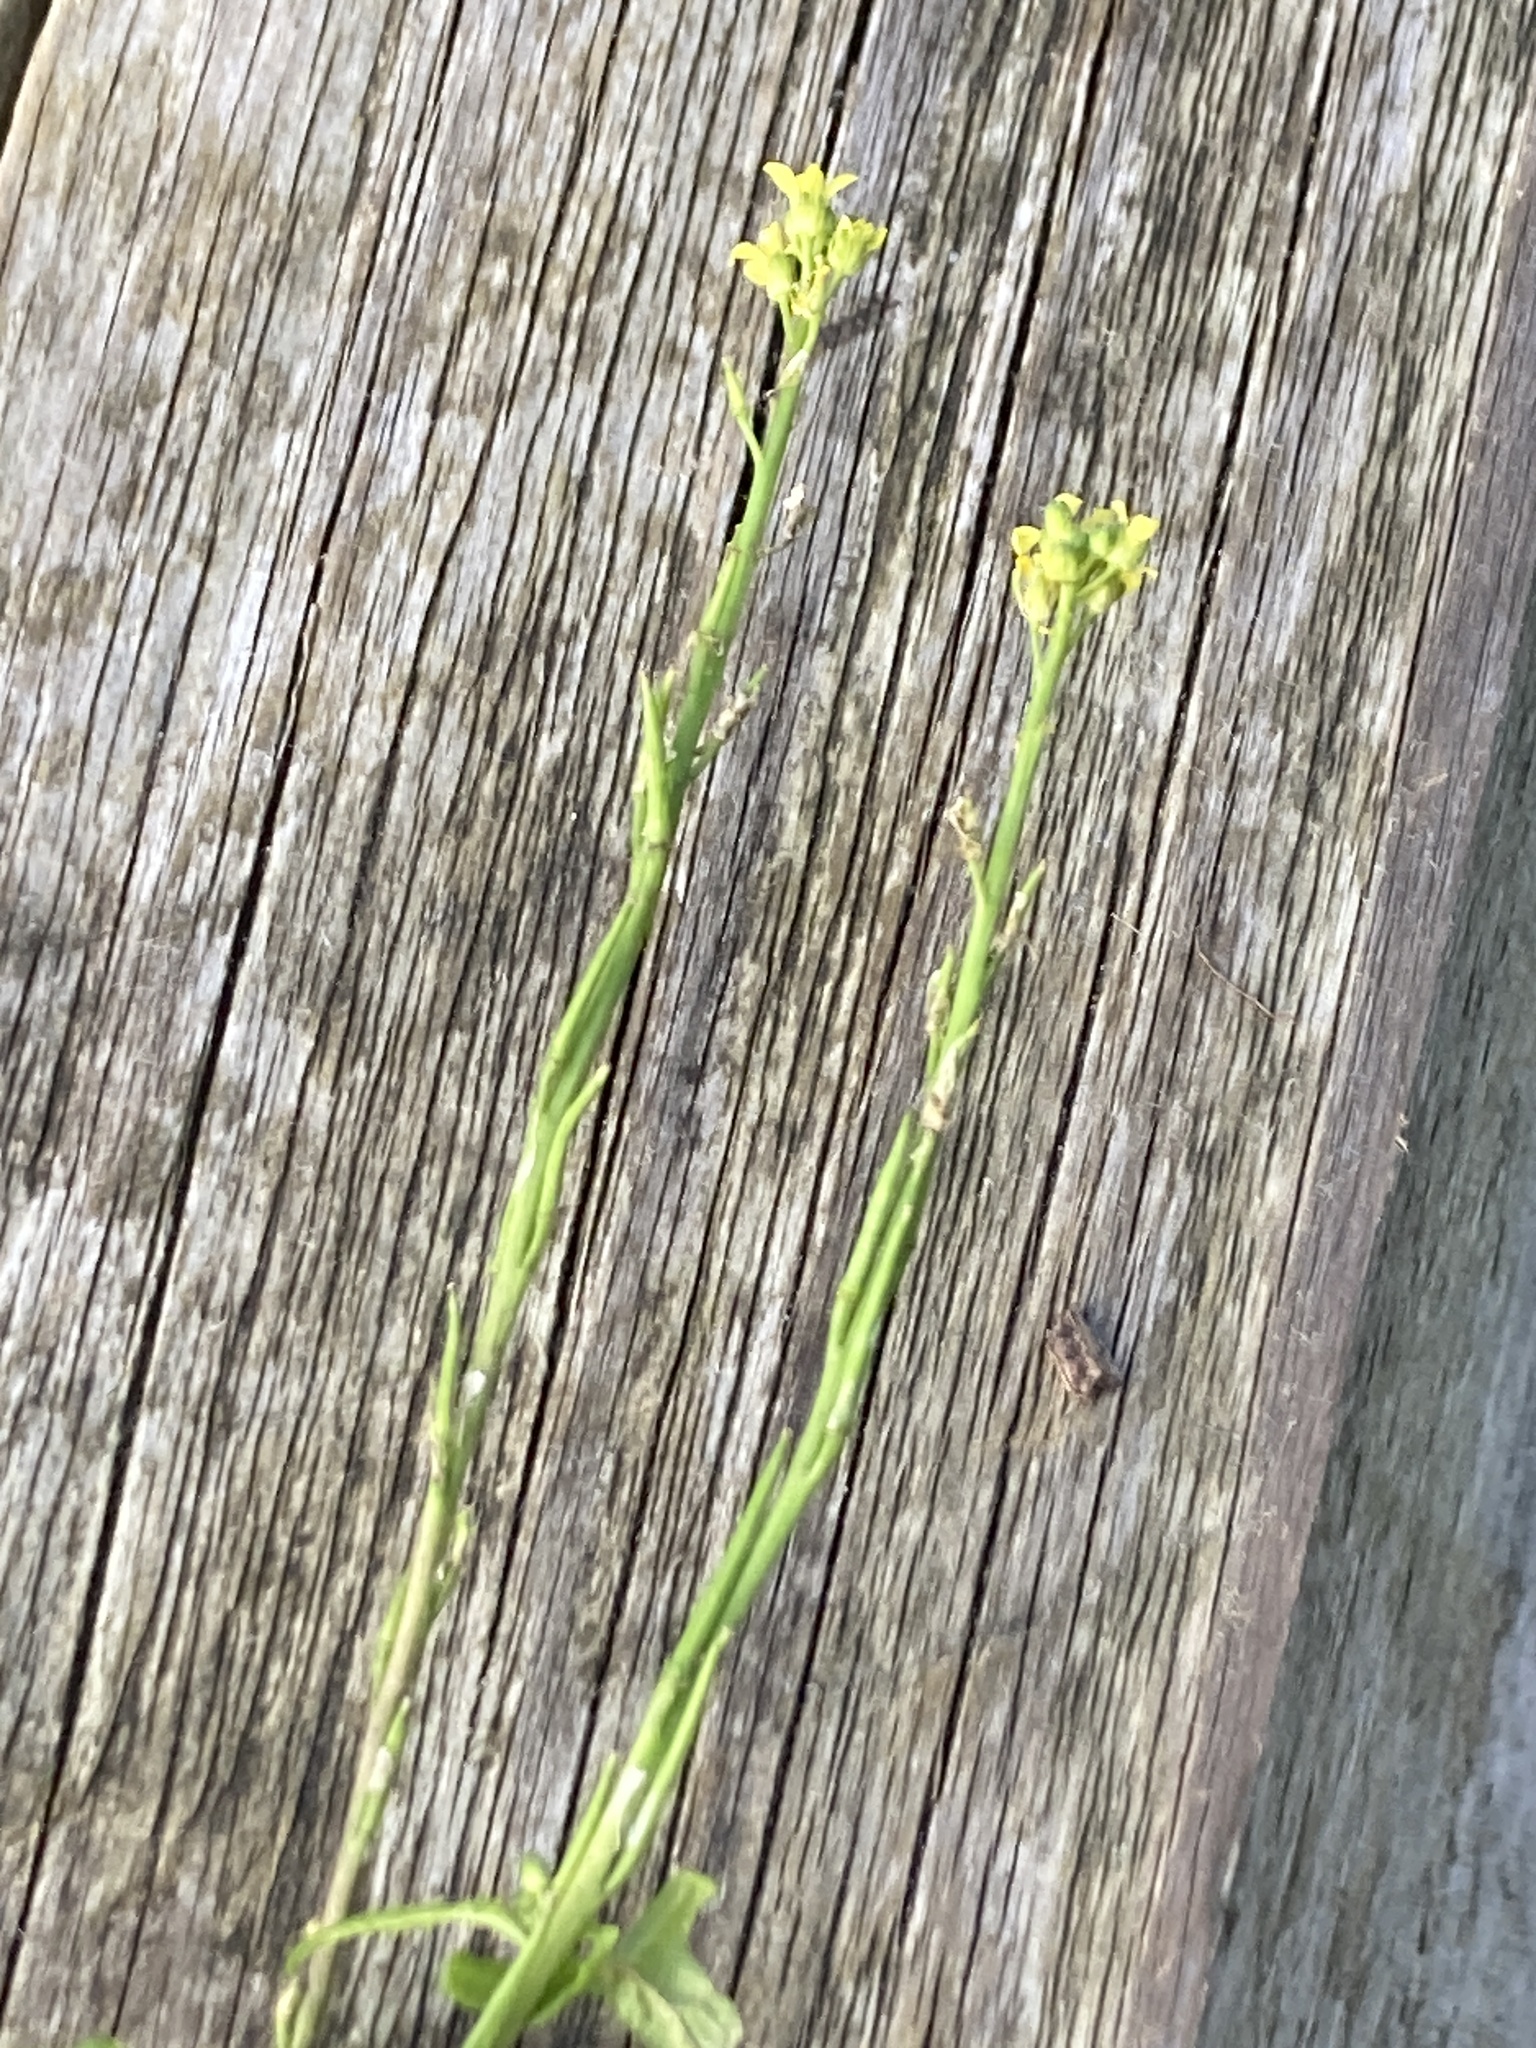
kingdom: Plantae
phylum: Tracheophyta
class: Magnoliopsida
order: Brassicales
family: Brassicaceae
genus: Sisymbrium
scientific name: Sisymbrium officinale
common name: Hedge mustard
